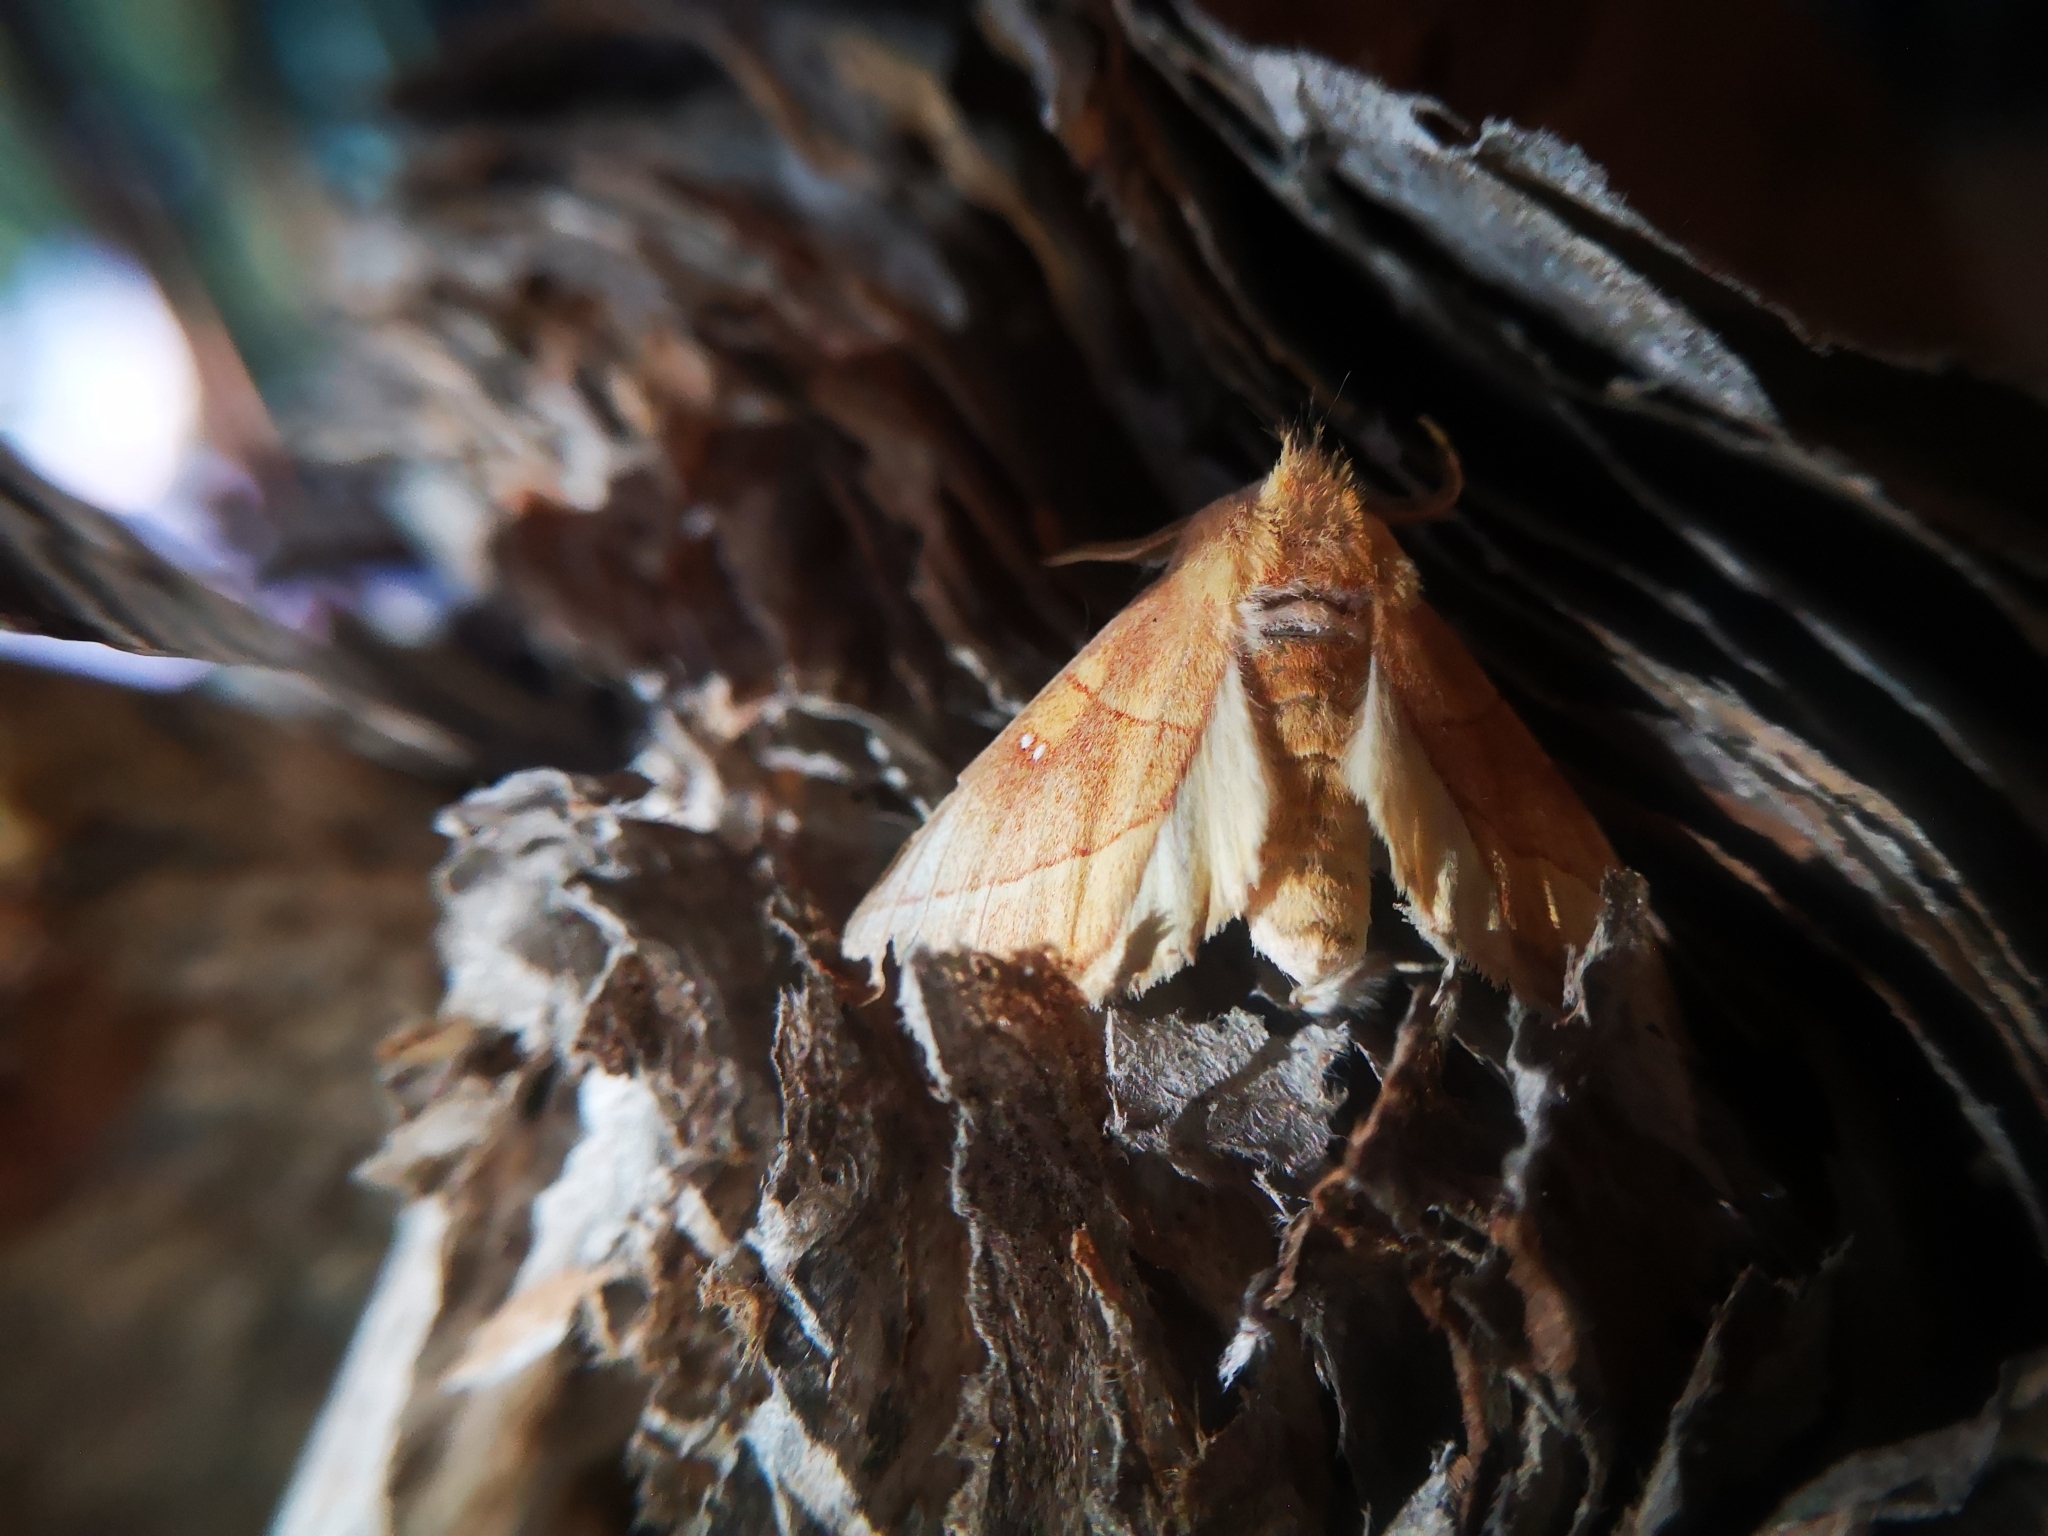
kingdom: Animalia
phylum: Arthropoda
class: Insecta
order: Lepidoptera
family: Notodontidae
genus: Nadata
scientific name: Nadata gibbosa
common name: White-dotted prominent
